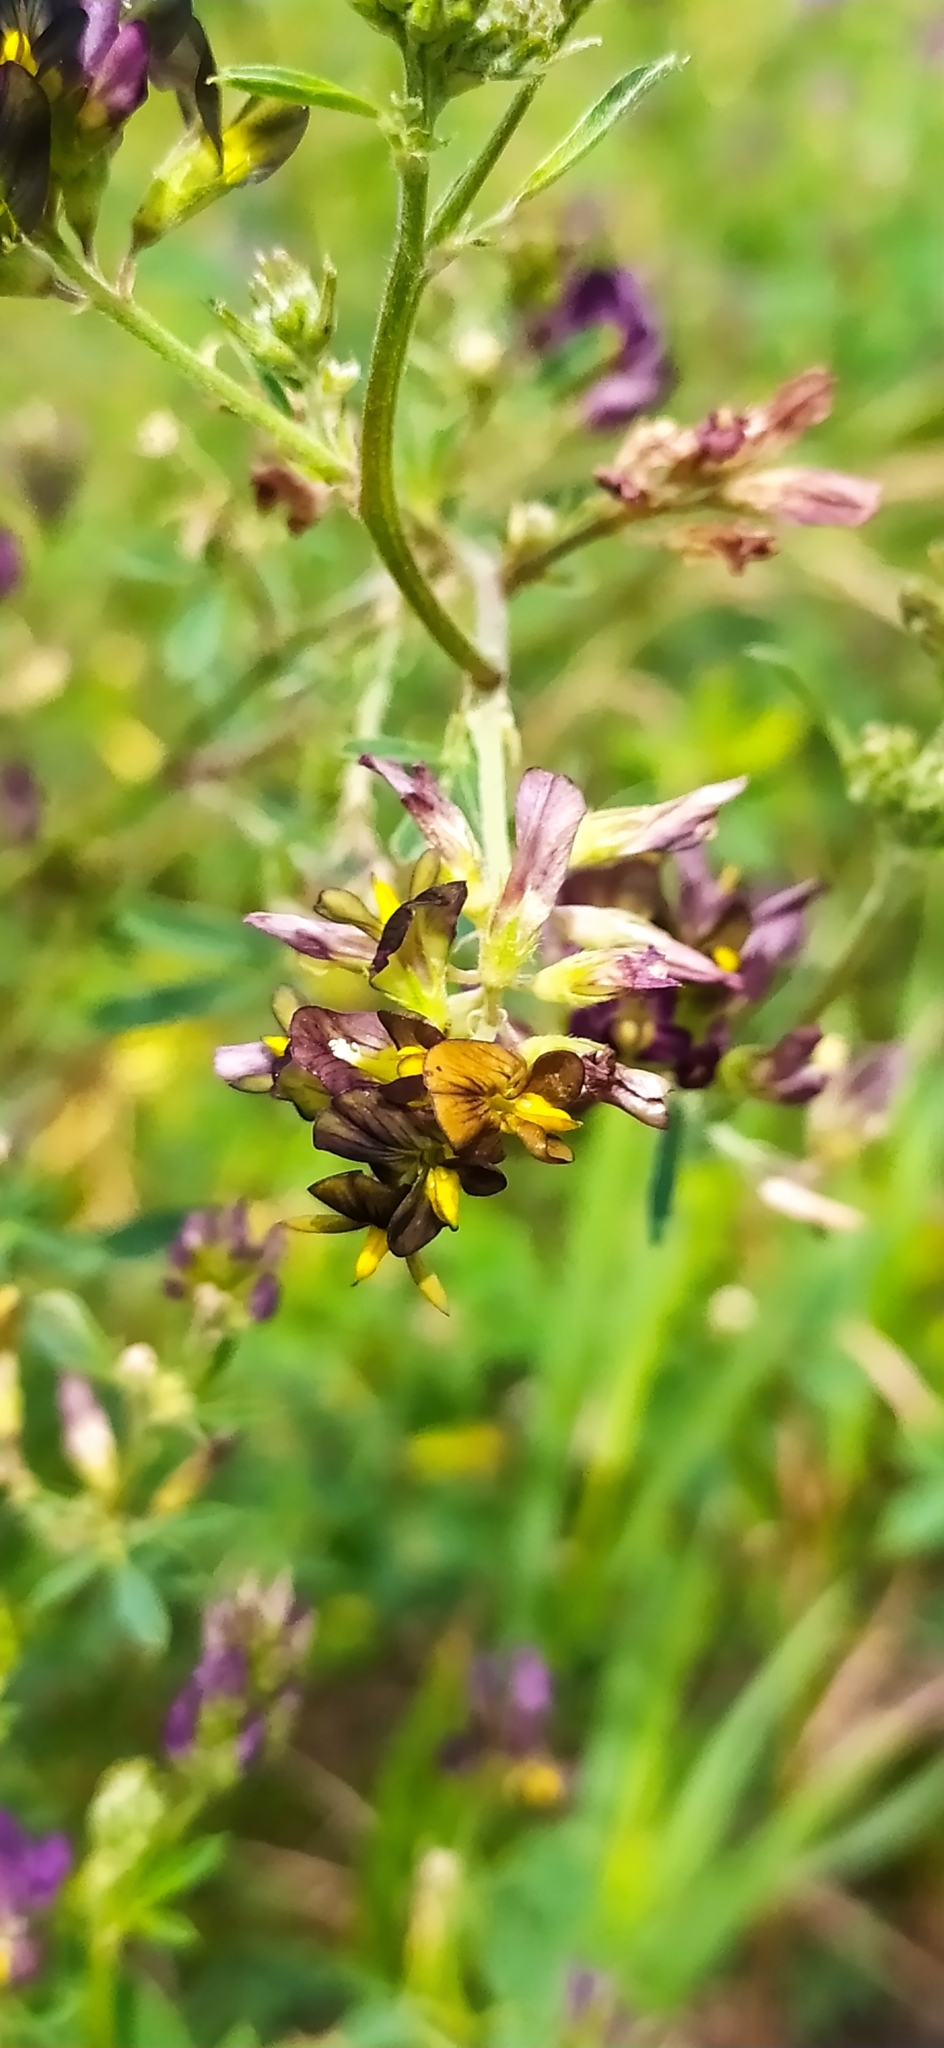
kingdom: Plantae
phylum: Tracheophyta
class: Magnoliopsida
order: Fabales
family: Fabaceae
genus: Medicago
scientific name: Medicago sativa
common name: Alfalfa
